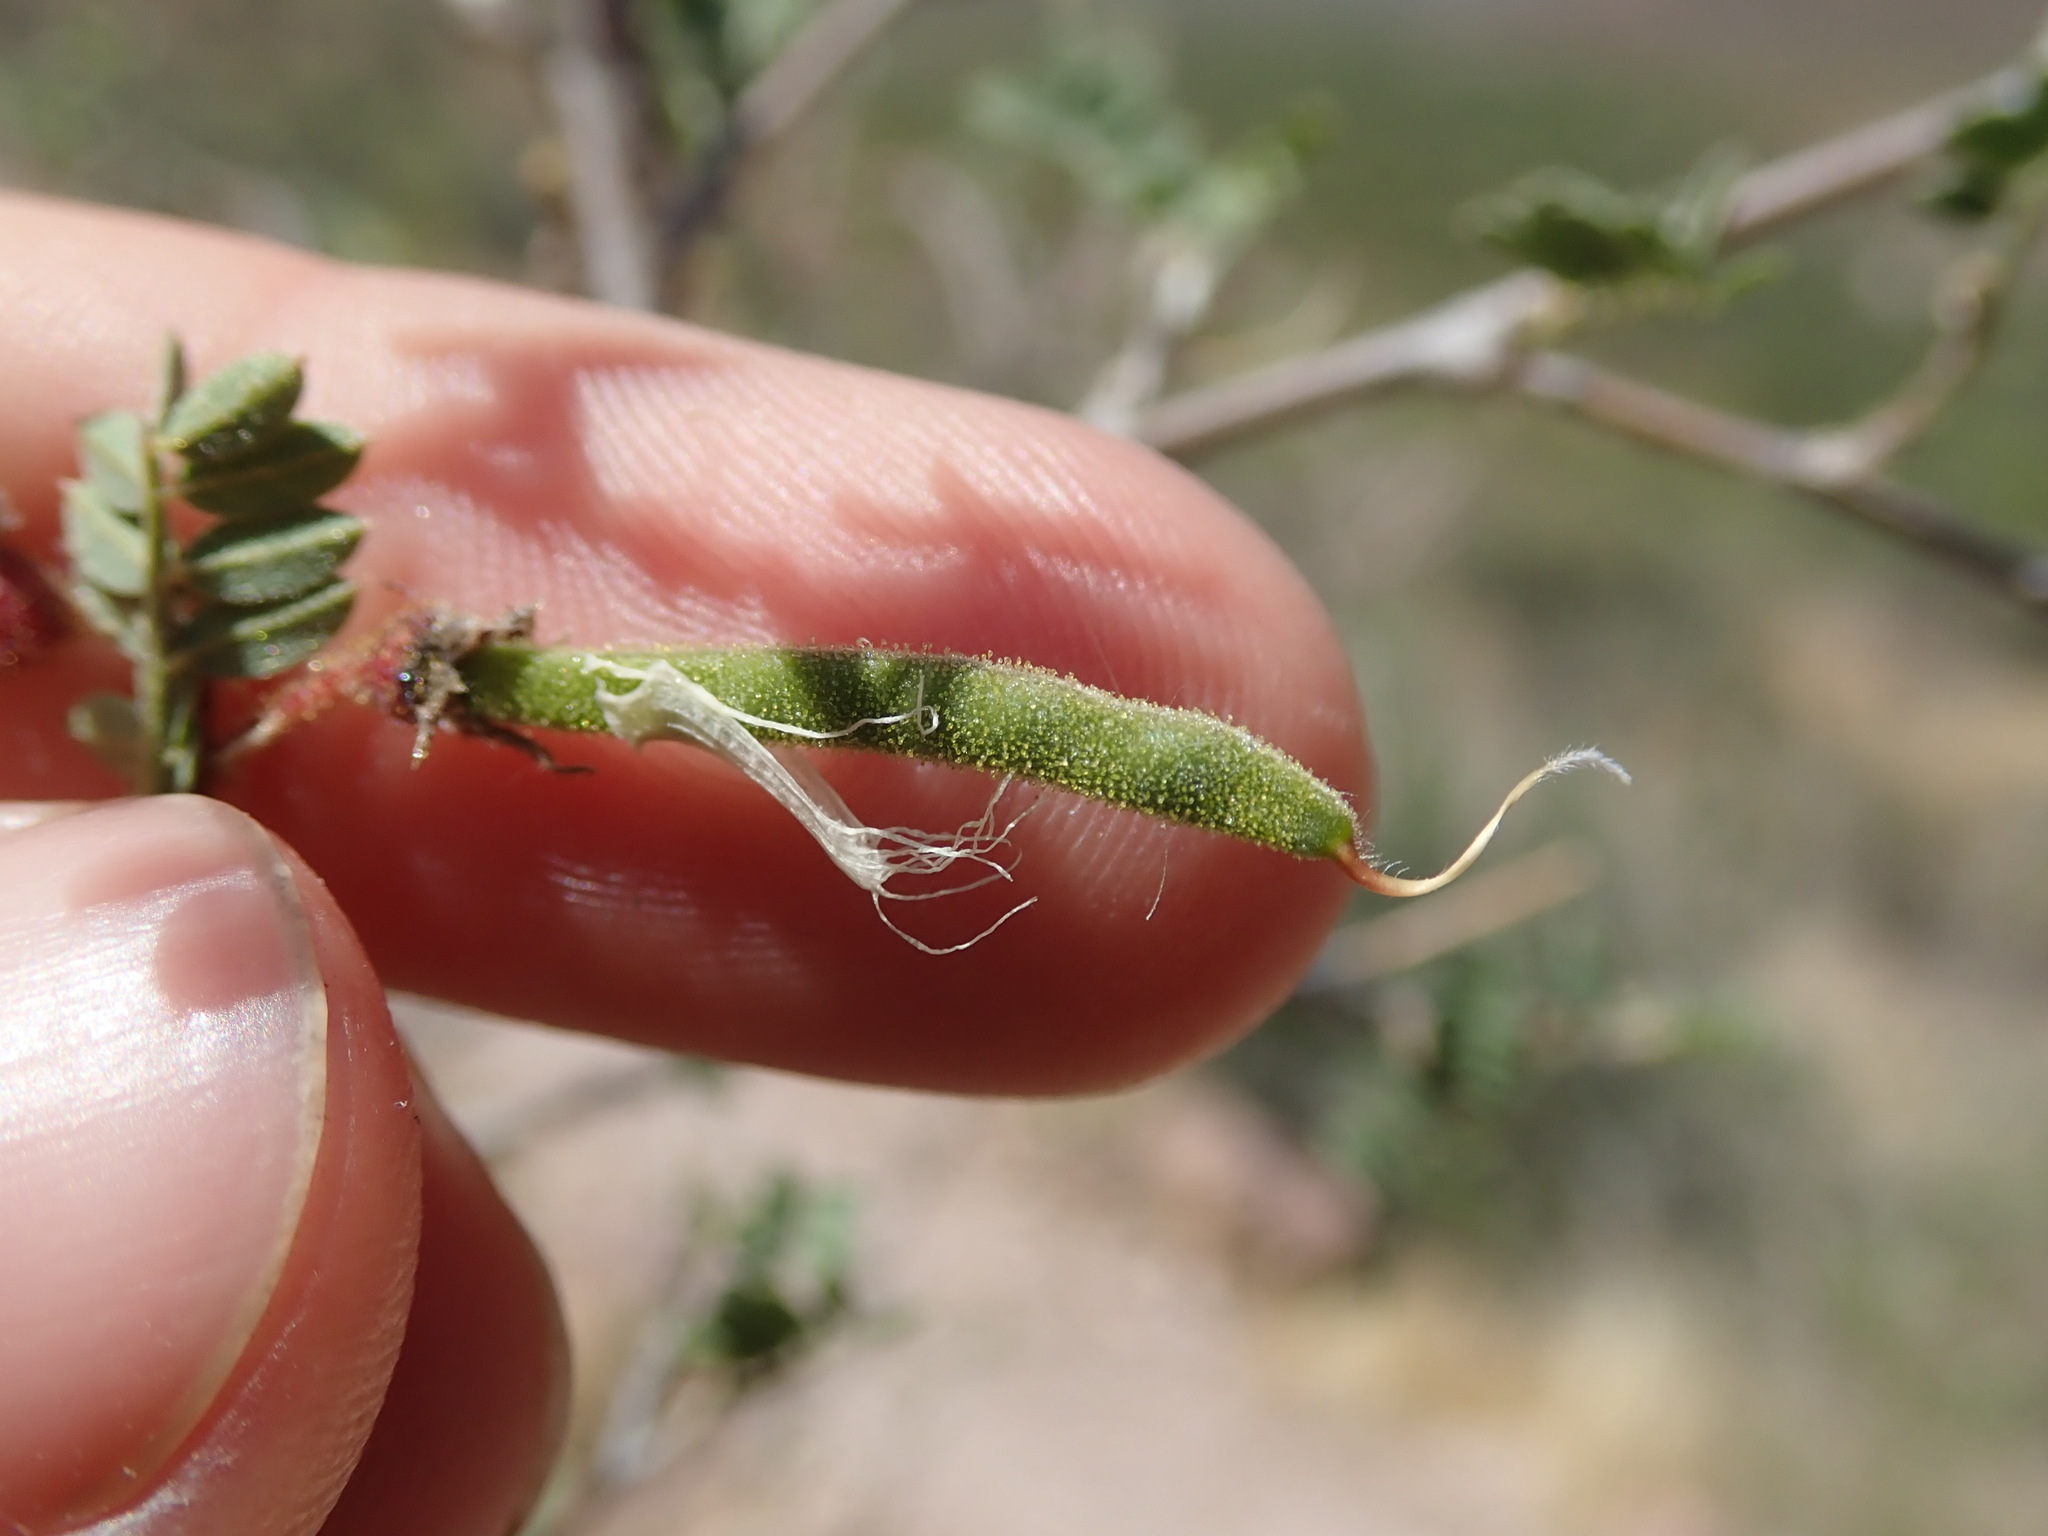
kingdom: Plantae
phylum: Tracheophyta
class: Magnoliopsida
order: Fabales
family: Fabaceae
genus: Coursetia
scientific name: Coursetia glandulosa
